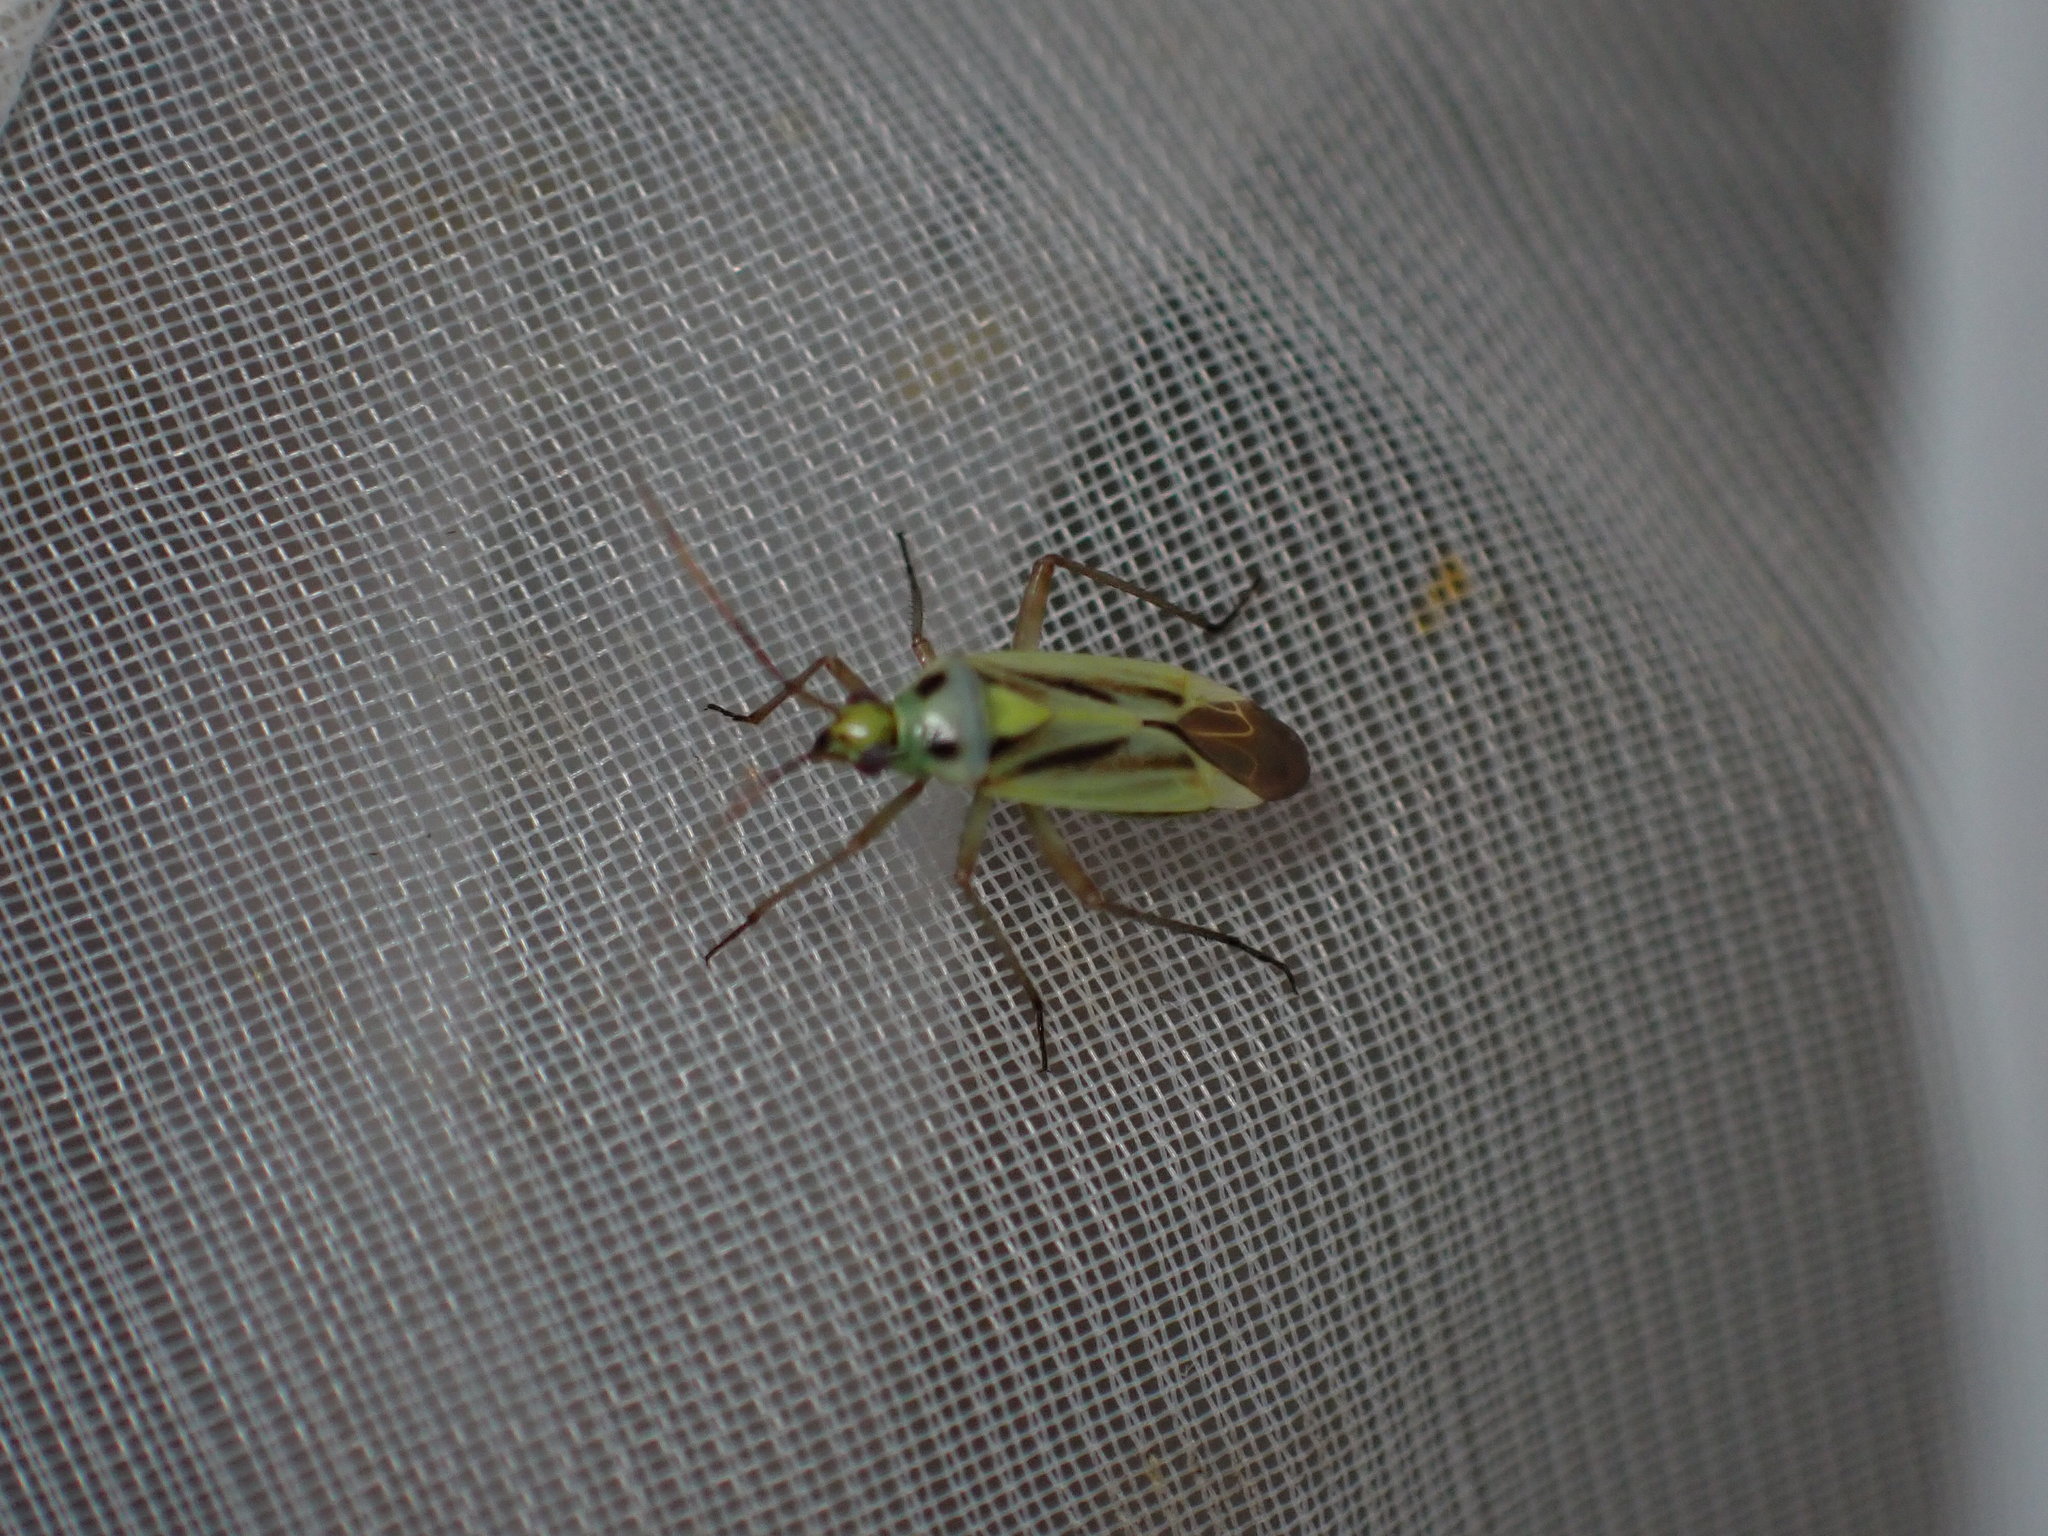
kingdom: Animalia
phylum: Arthropoda
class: Insecta
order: Hemiptera
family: Miridae
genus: Stenotus
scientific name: Stenotus binotatus
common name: Plant bug
